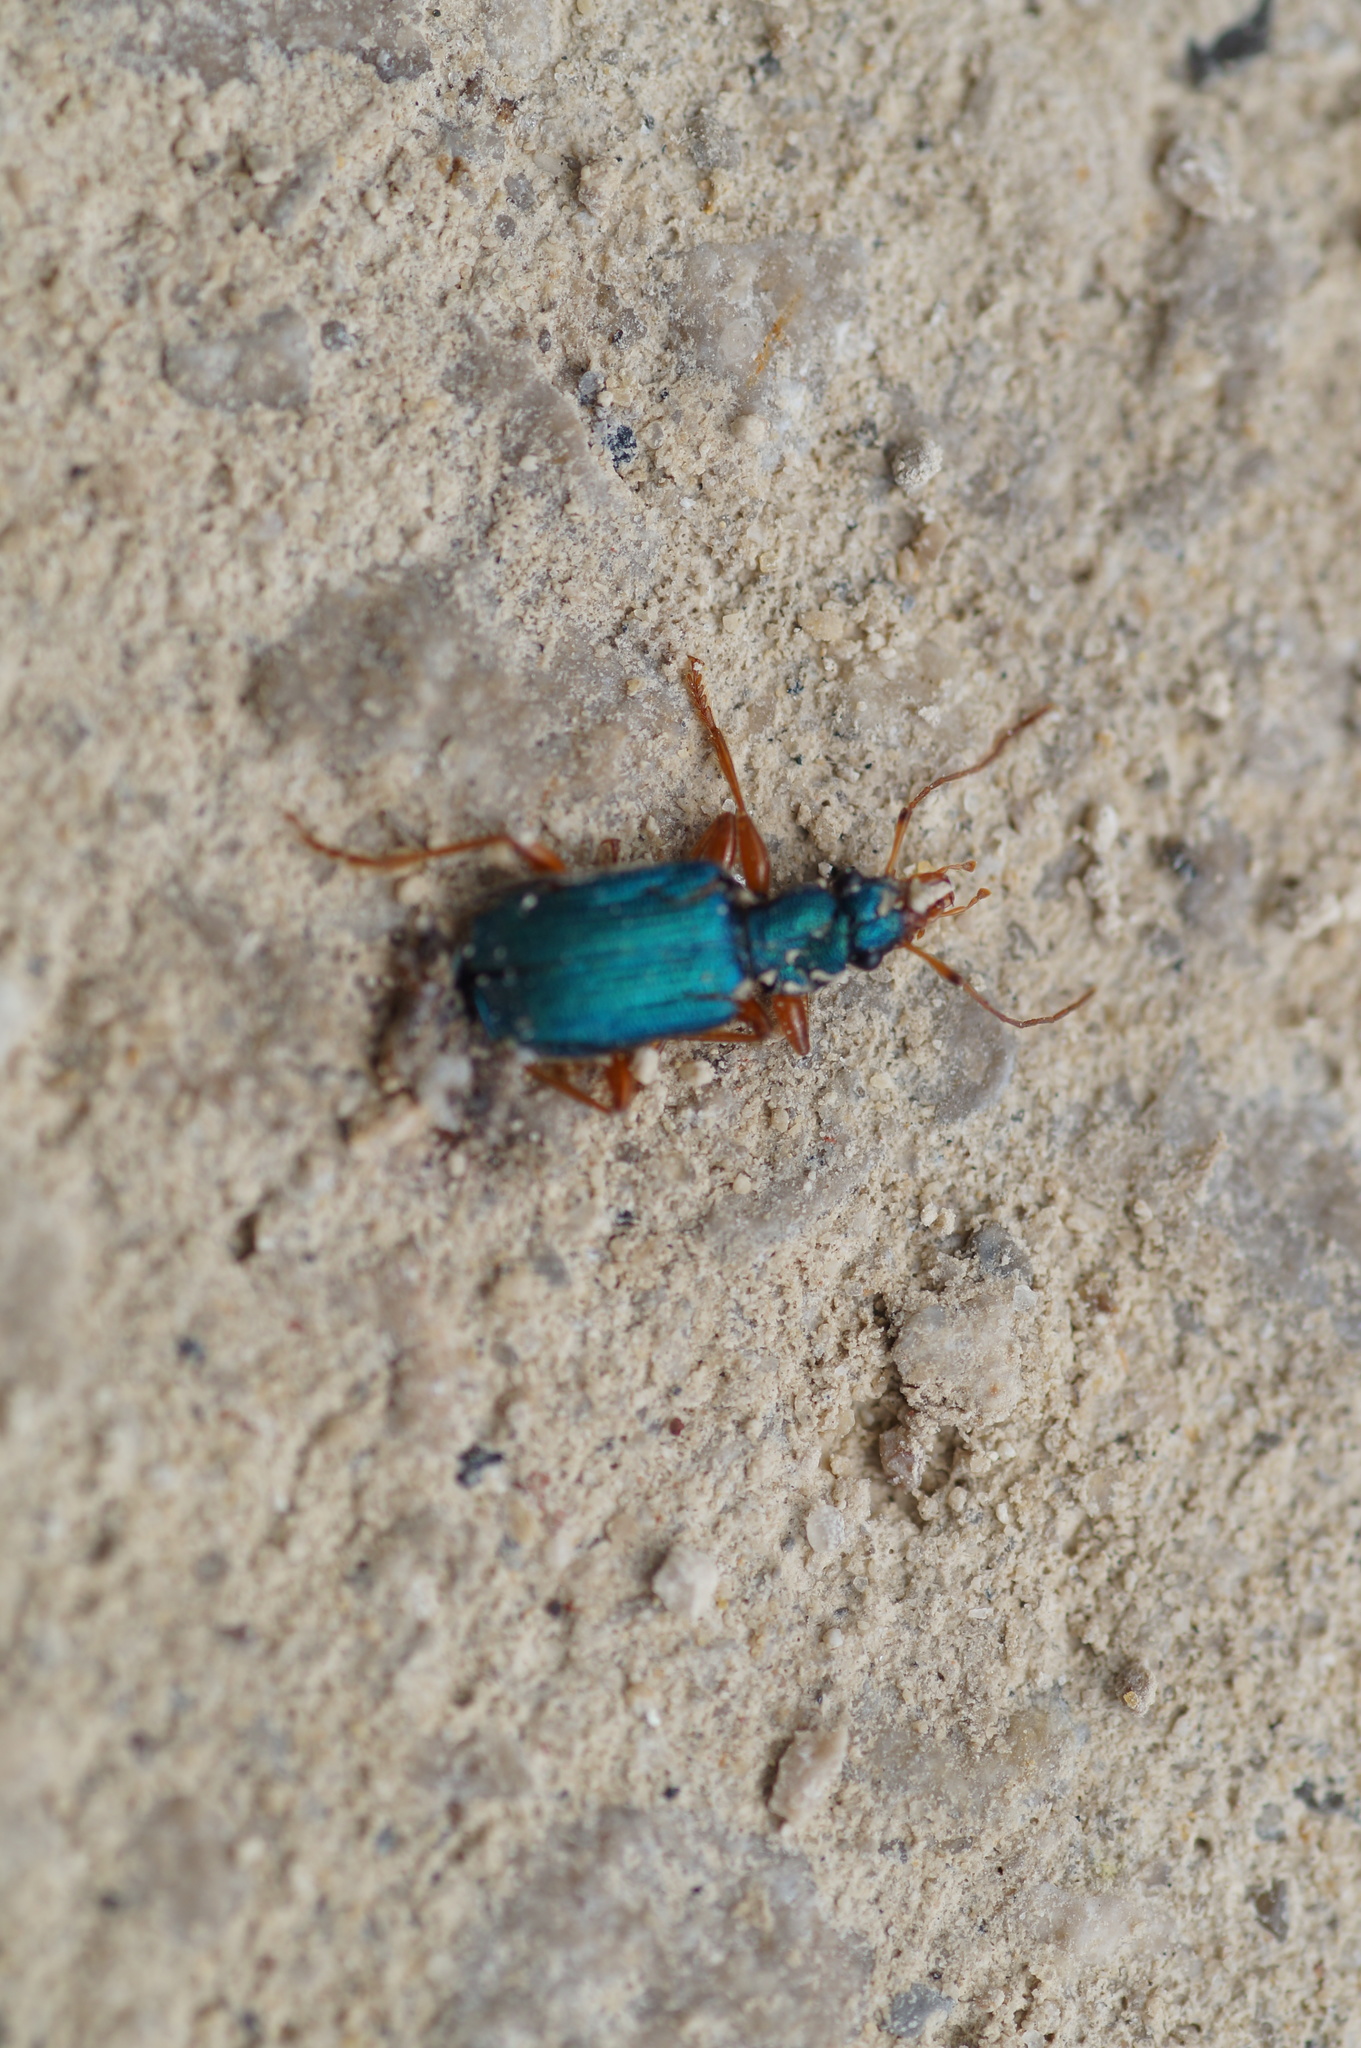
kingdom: Animalia
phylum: Arthropoda
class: Insecta
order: Coleoptera
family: Carabidae
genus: Drypta
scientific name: Drypta dentata
